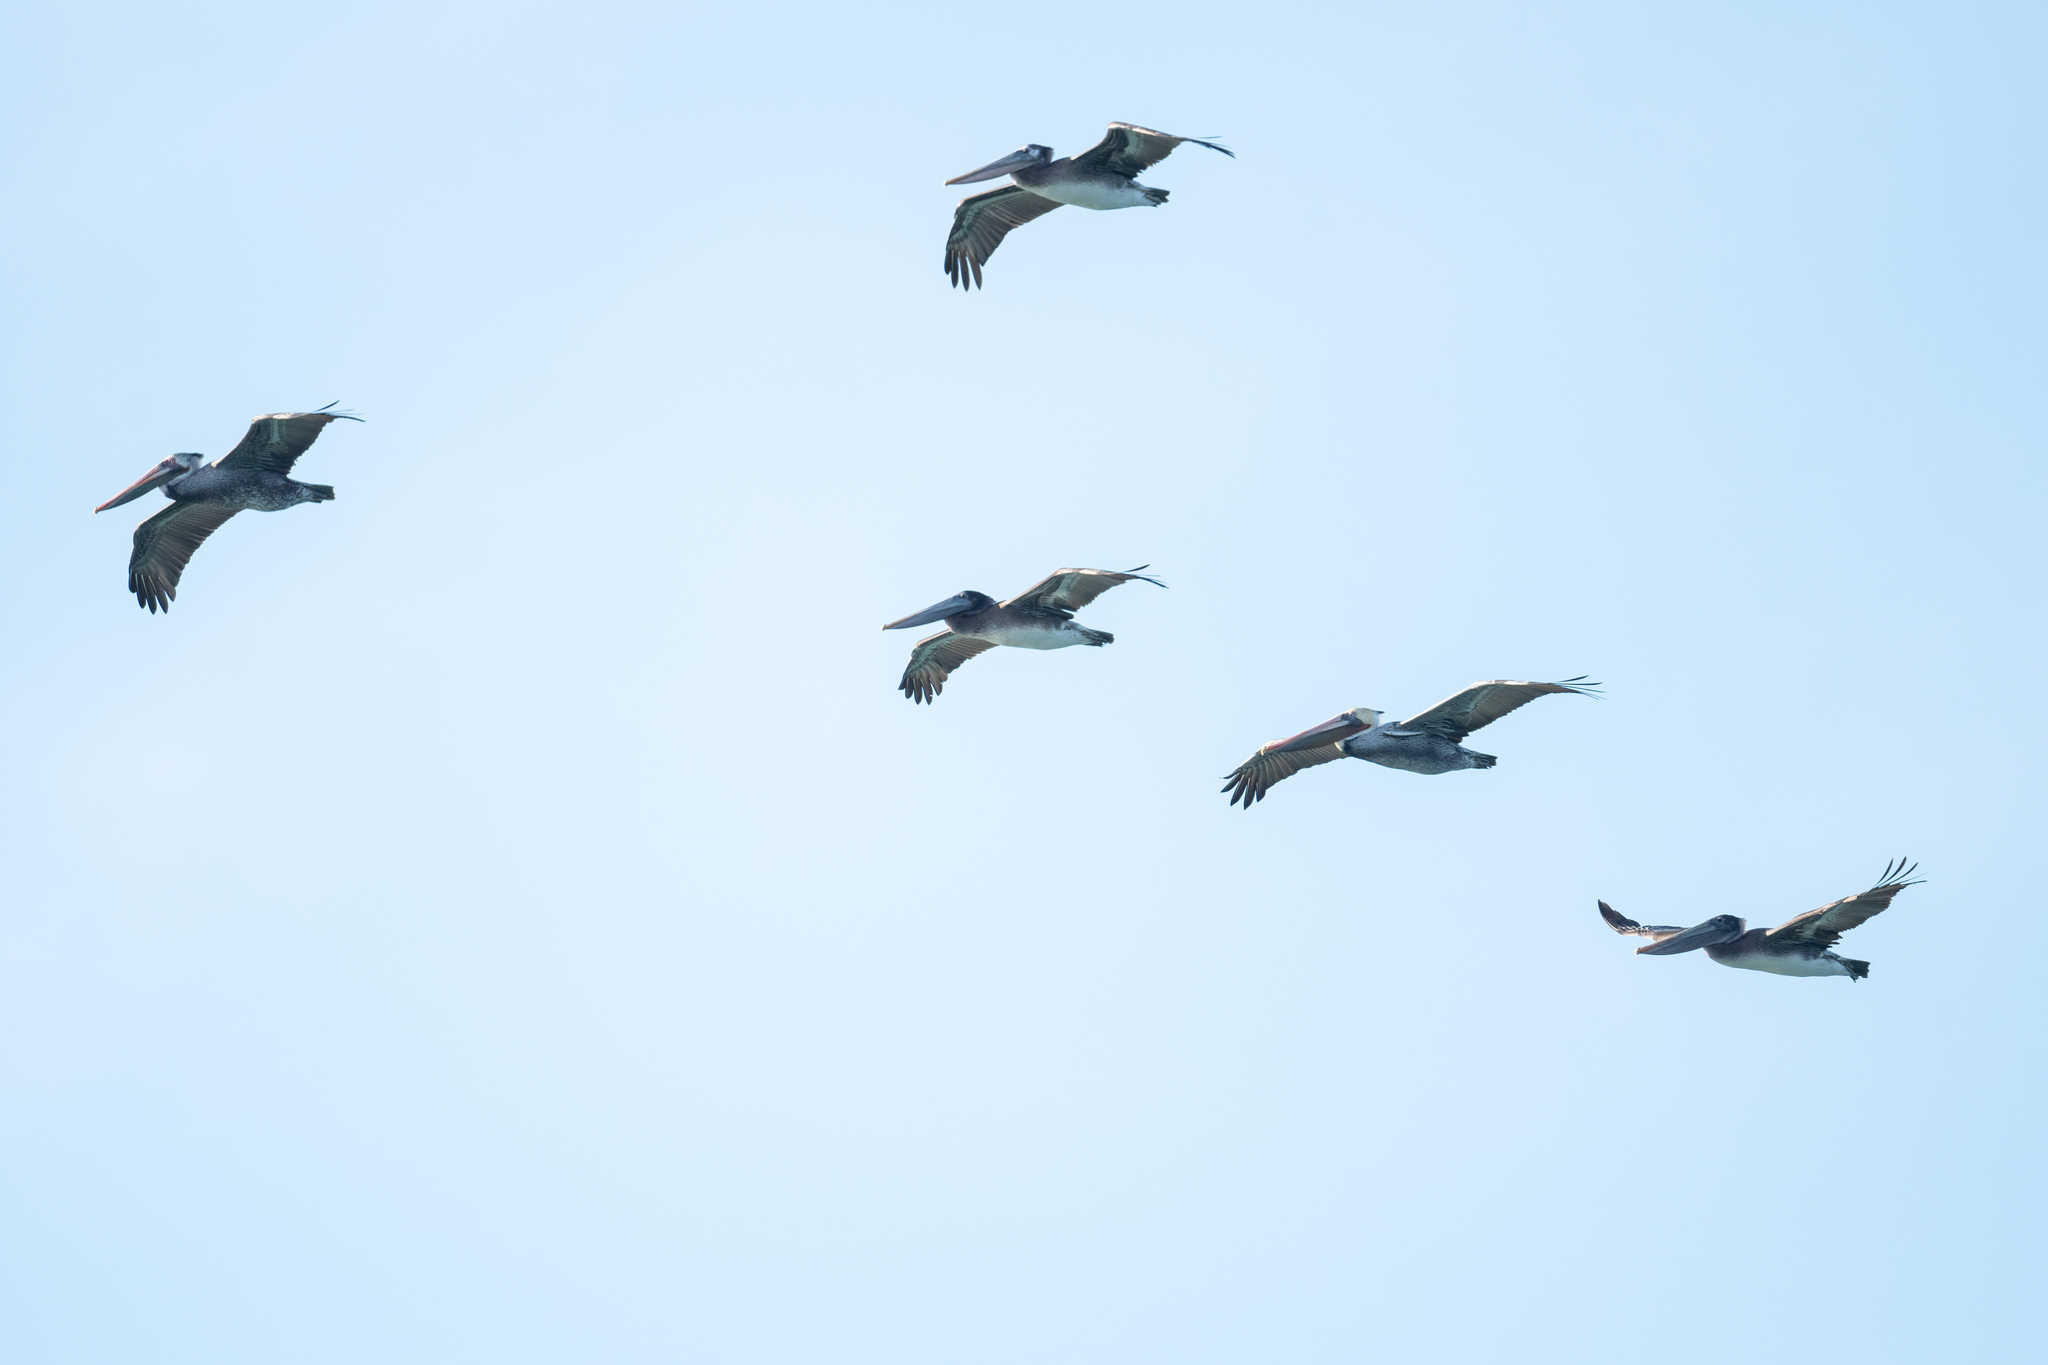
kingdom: Animalia
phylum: Chordata
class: Aves
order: Pelecaniformes
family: Pelecanidae
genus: Pelecanus
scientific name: Pelecanus occidentalis
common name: Brown pelican
